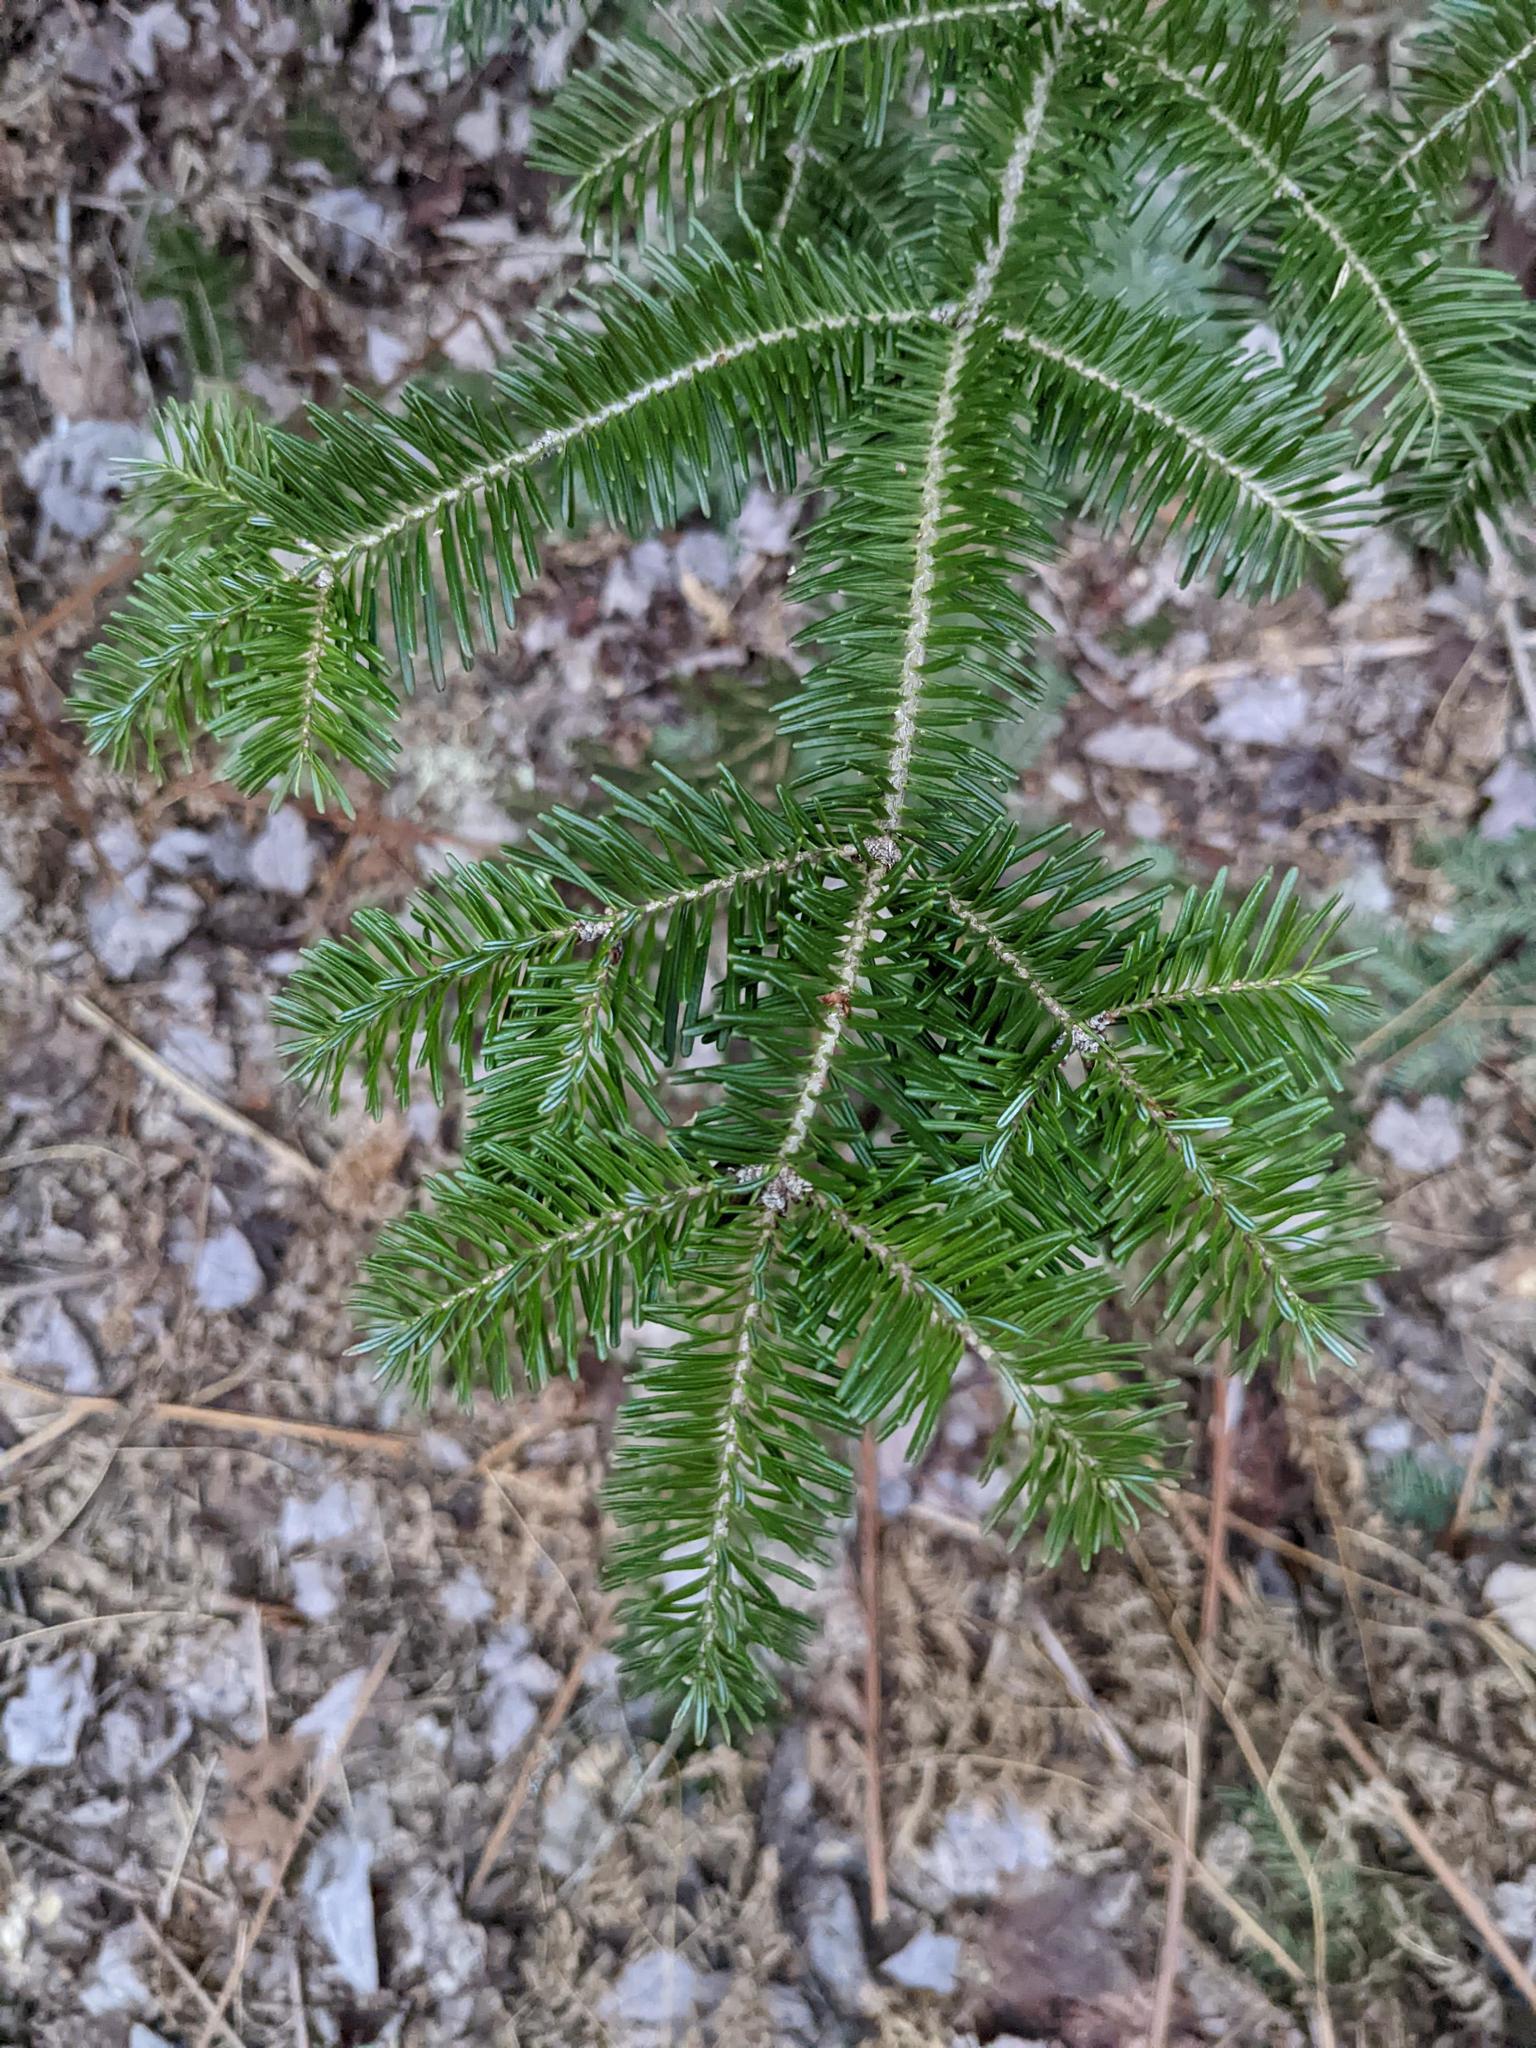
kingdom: Plantae
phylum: Tracheophyta
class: Pinopsida
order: Pinales
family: Pinaceae
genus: Abies
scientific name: Abies balsamea
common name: Balsam fir
